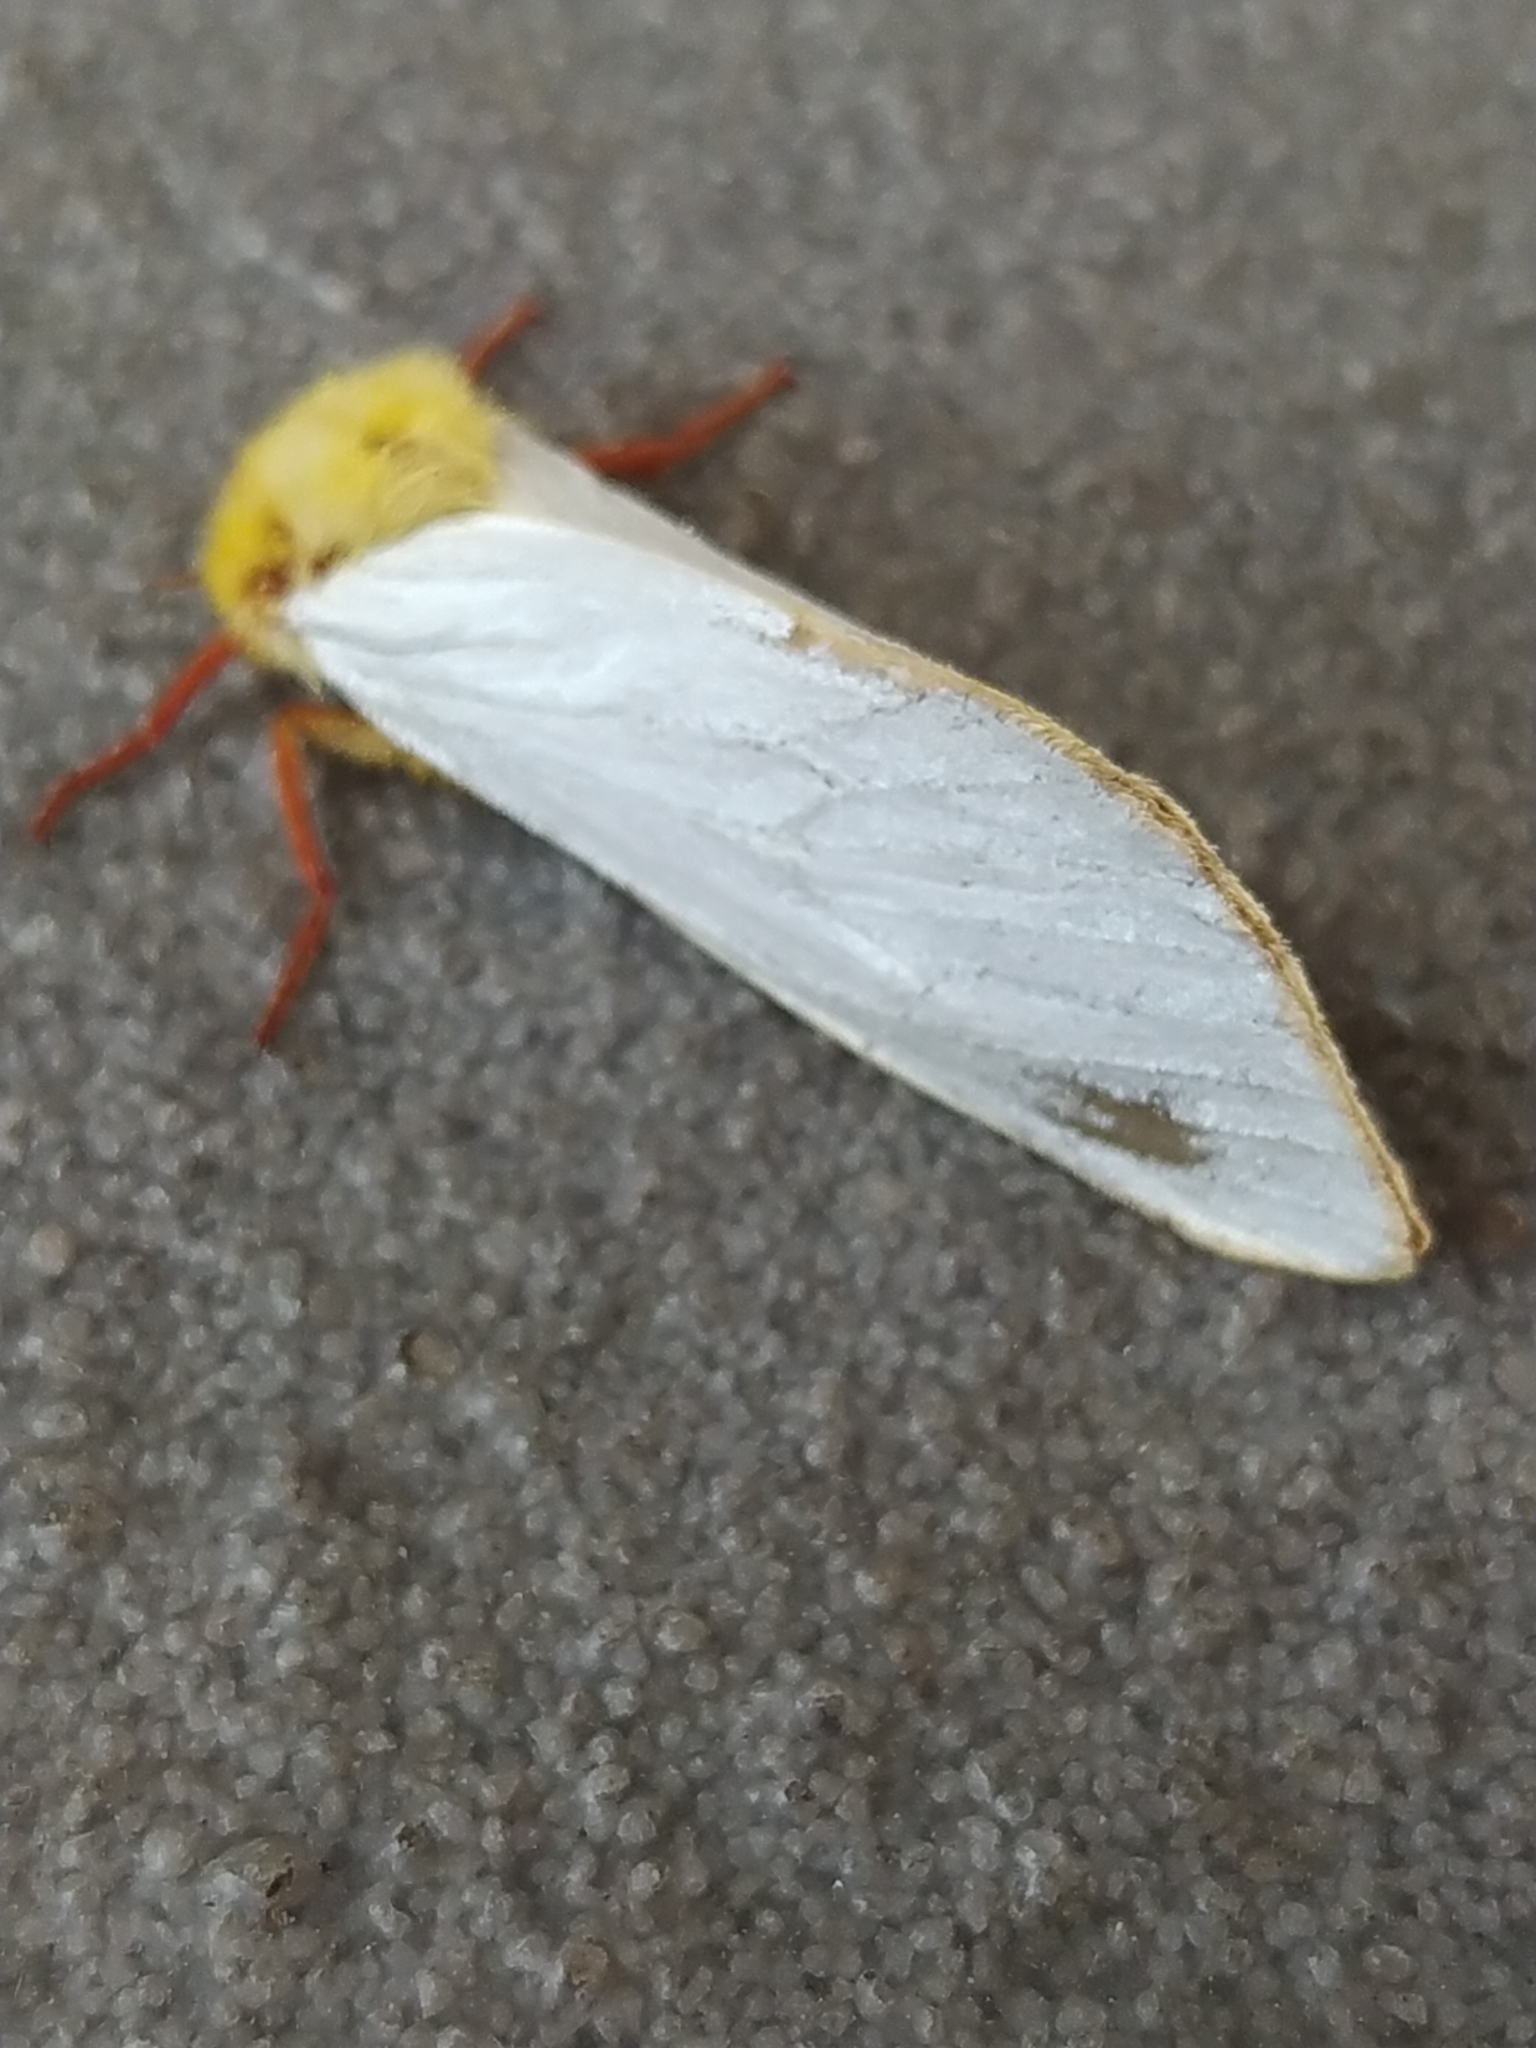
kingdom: Animalia
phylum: Arthropoda
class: Insecta
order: Lepidoptera
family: Hepialidae
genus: Hepialus
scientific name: Hepialus humuli
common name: Ghost moth
